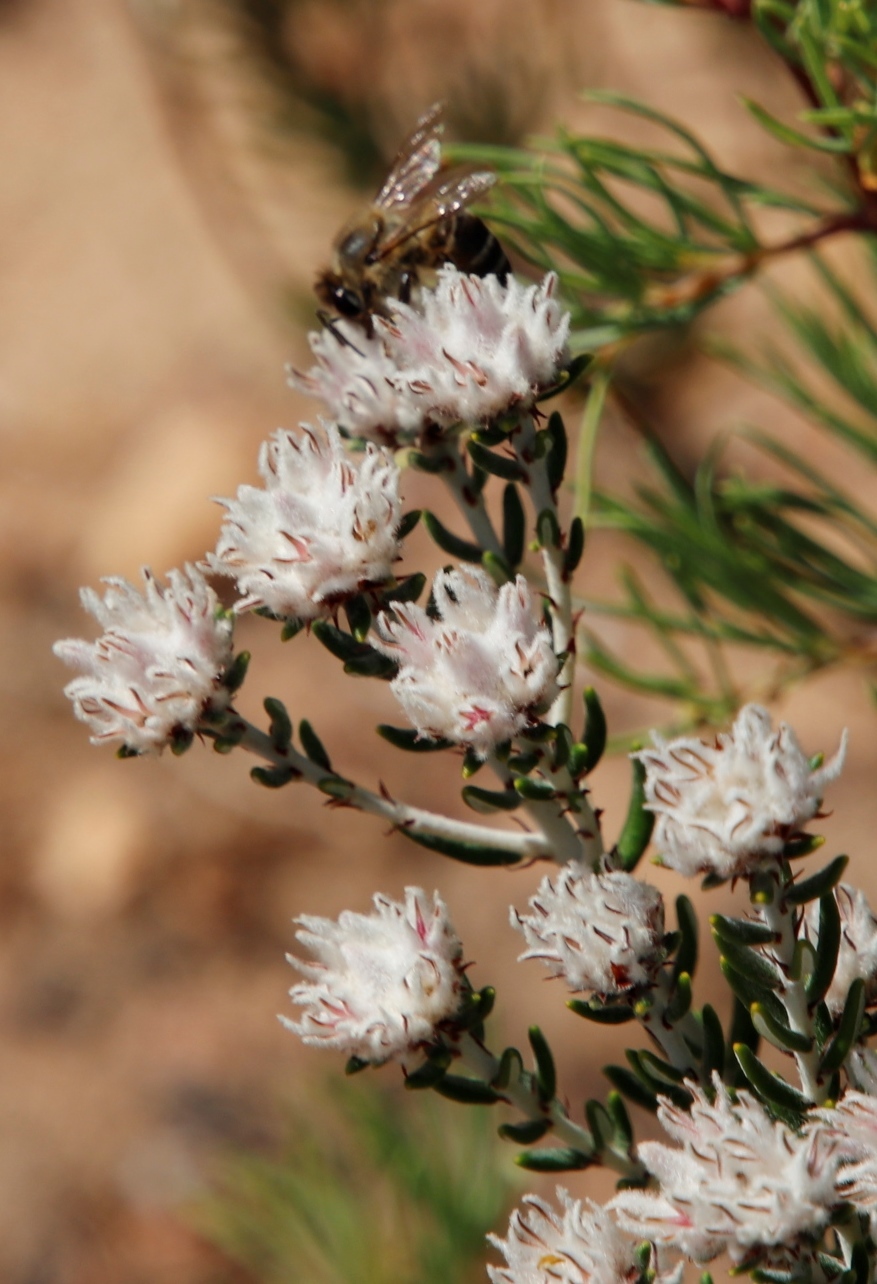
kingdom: Animalia
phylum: Arthropoda
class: Insecta
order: Hymenoptera
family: Apidae
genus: Apis
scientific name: Apis mellifera
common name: Honey bee
